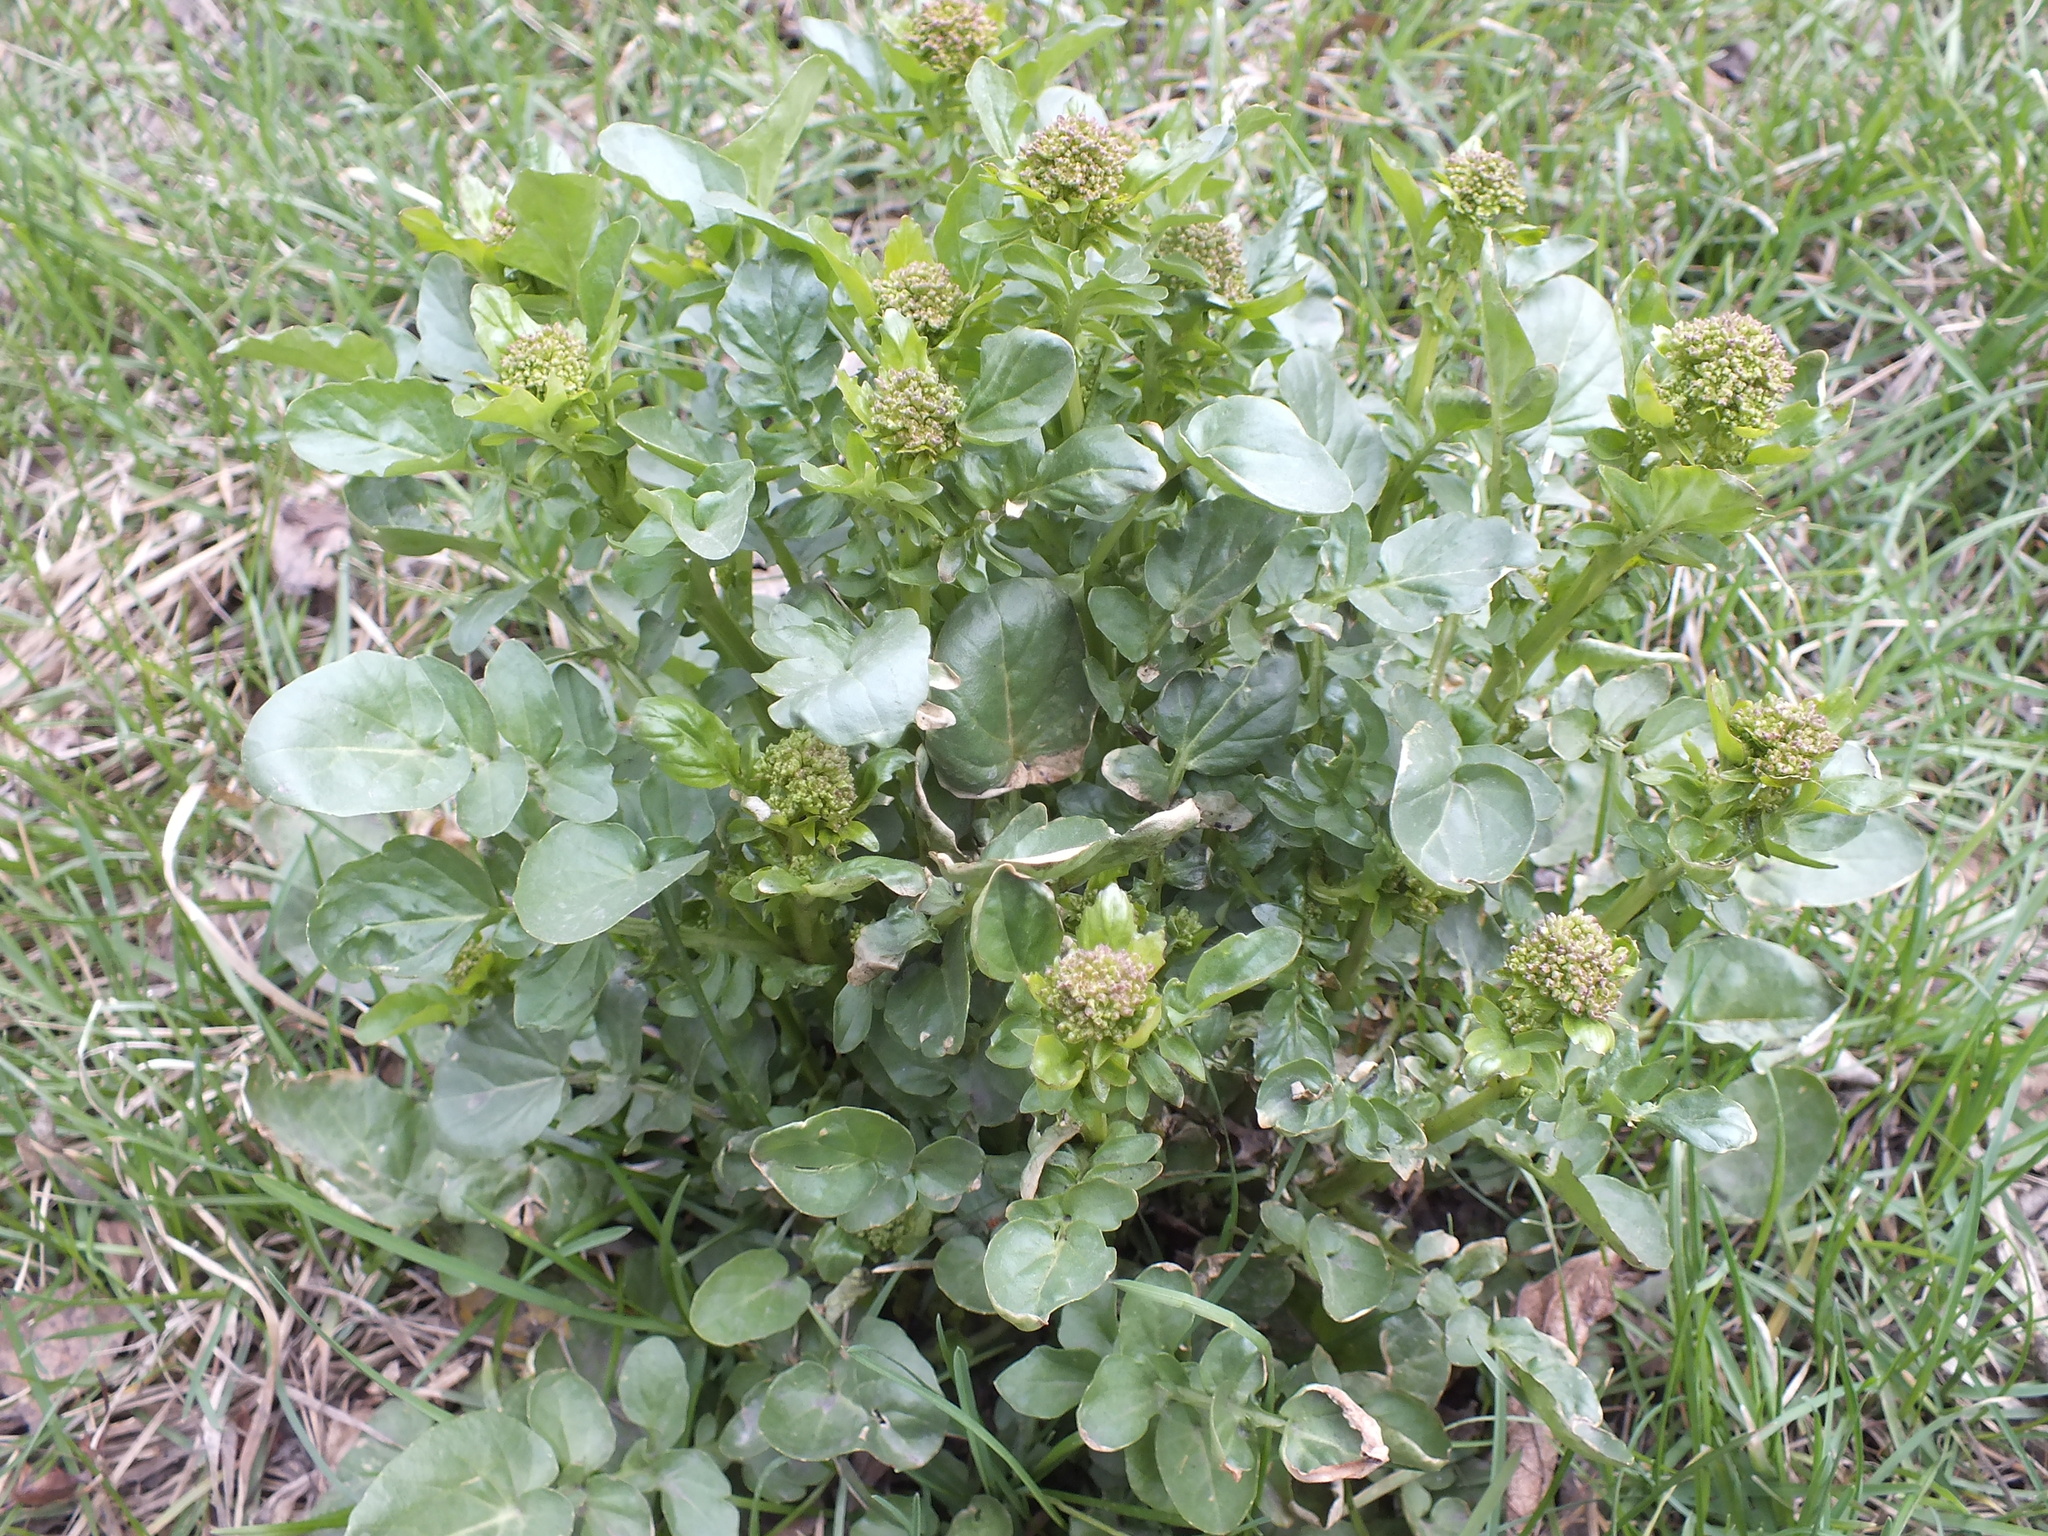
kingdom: Plantae
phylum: Tracheophyta
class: Magnoliopsida
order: Brassicales
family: Brassicaceae
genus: Barbarea
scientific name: Barbarea vulgaris
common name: Cressy-greens
